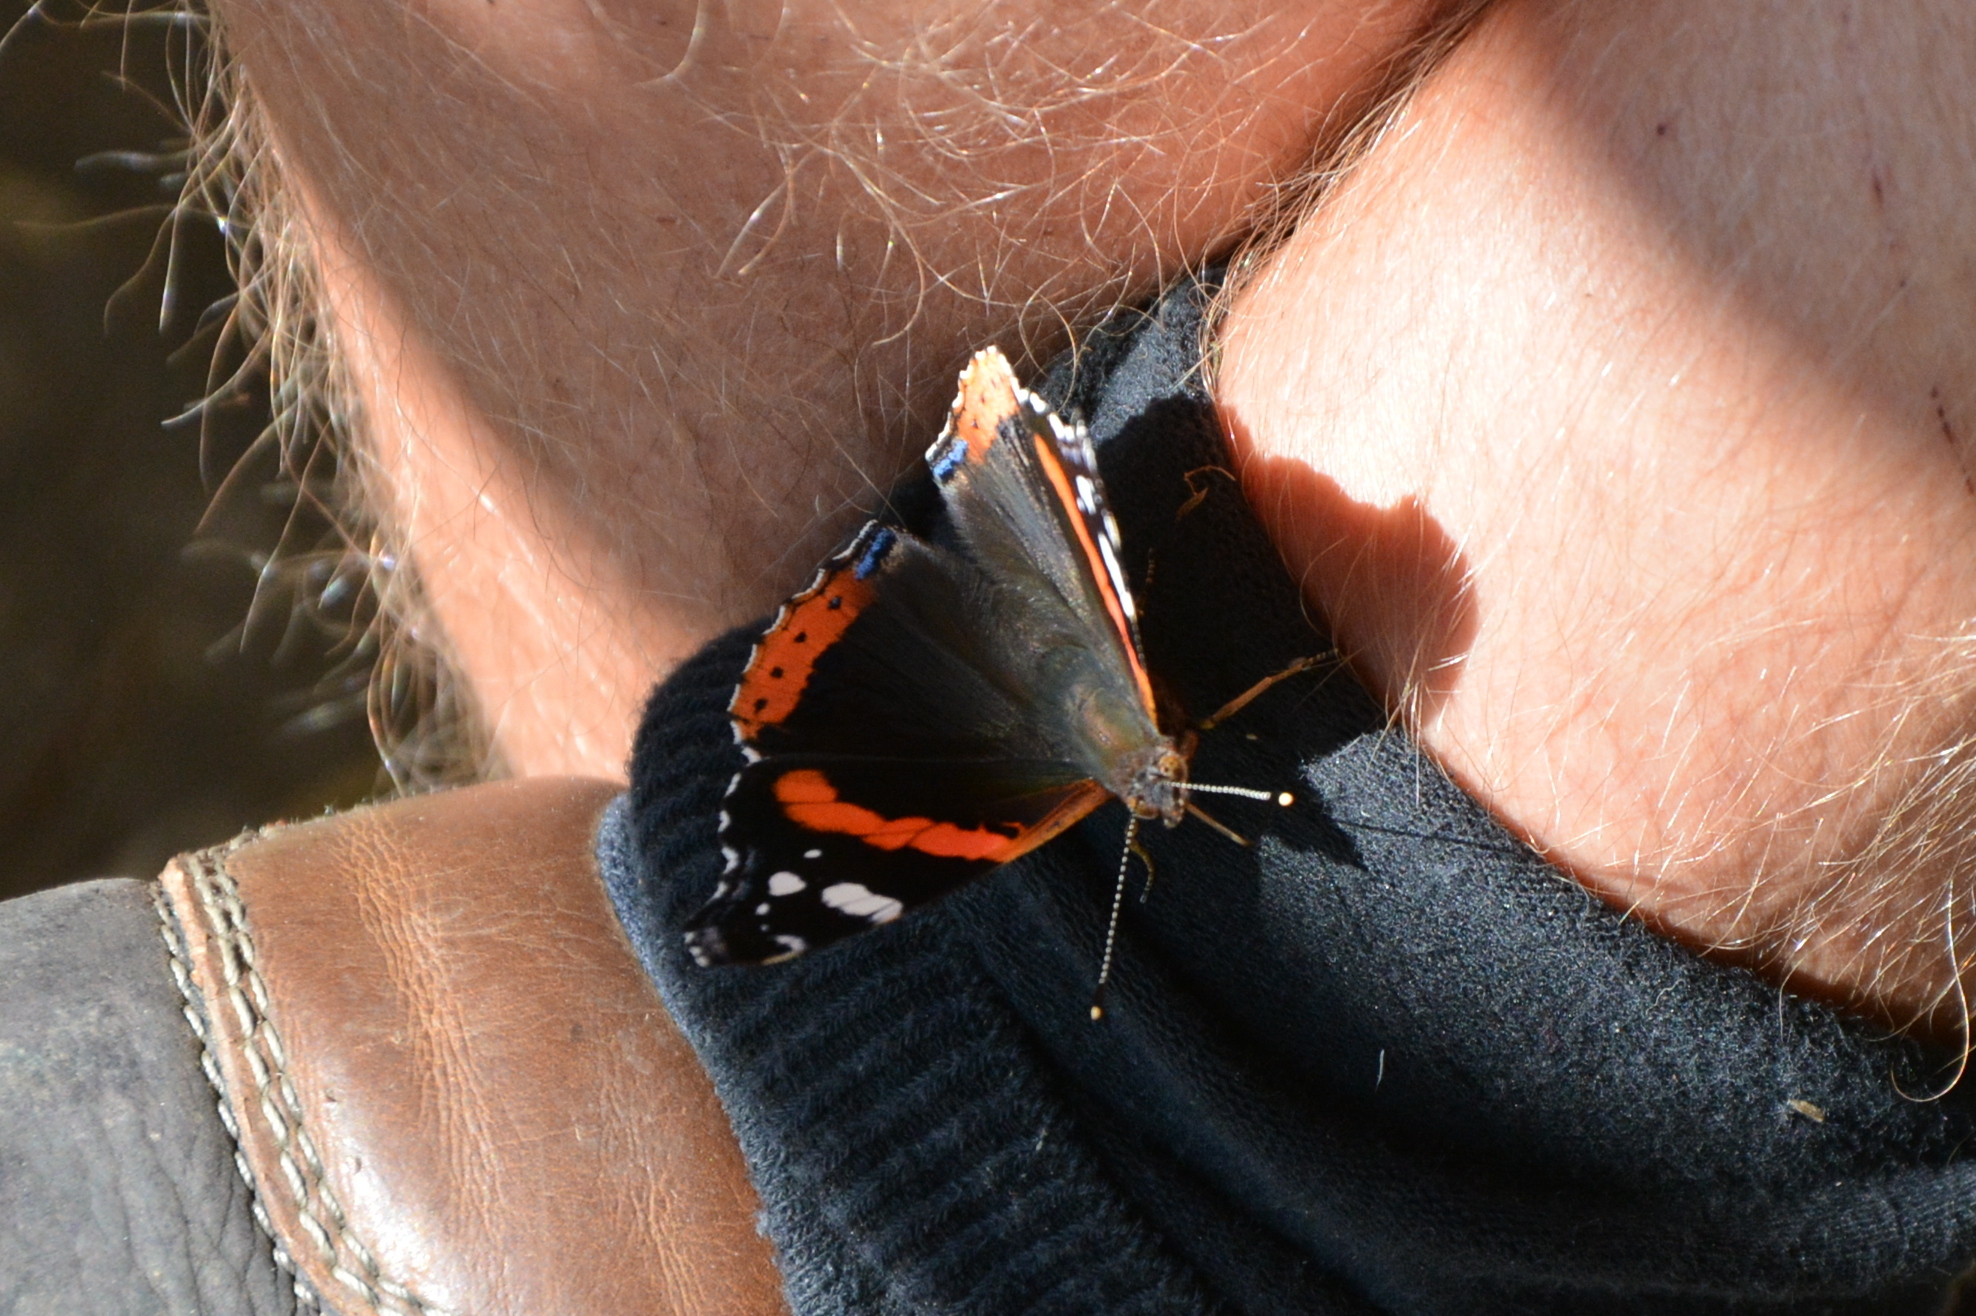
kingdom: Animalia
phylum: Arthropoda
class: Insecta
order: Lepidoptera
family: Nymphalidae
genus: Vanessa
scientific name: Vanessa atalanta
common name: Red admiral
